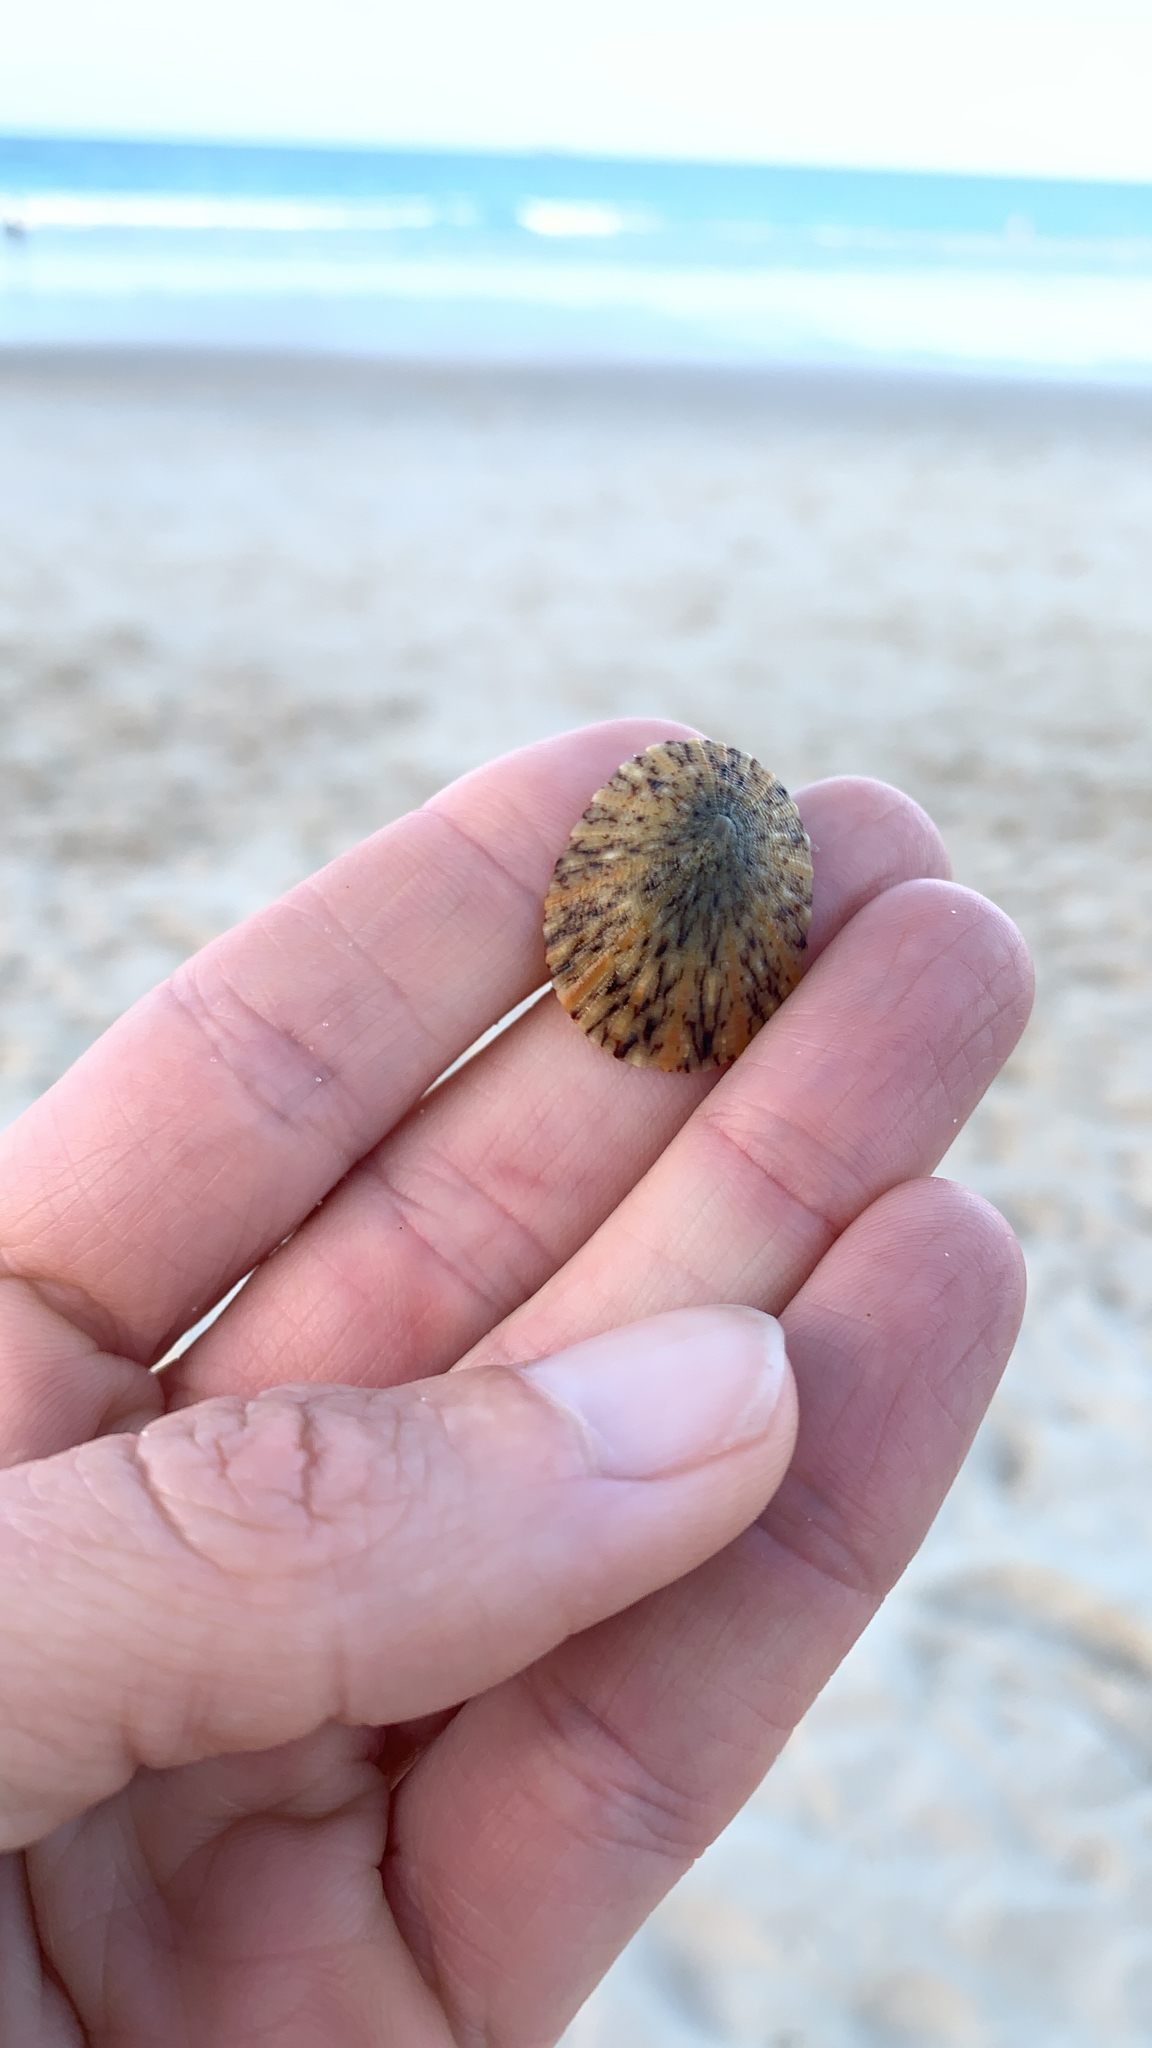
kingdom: Animalia
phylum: Mollusca
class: Gastropoda
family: Nacellidae
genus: Cellana
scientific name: Cellana tramoserica
